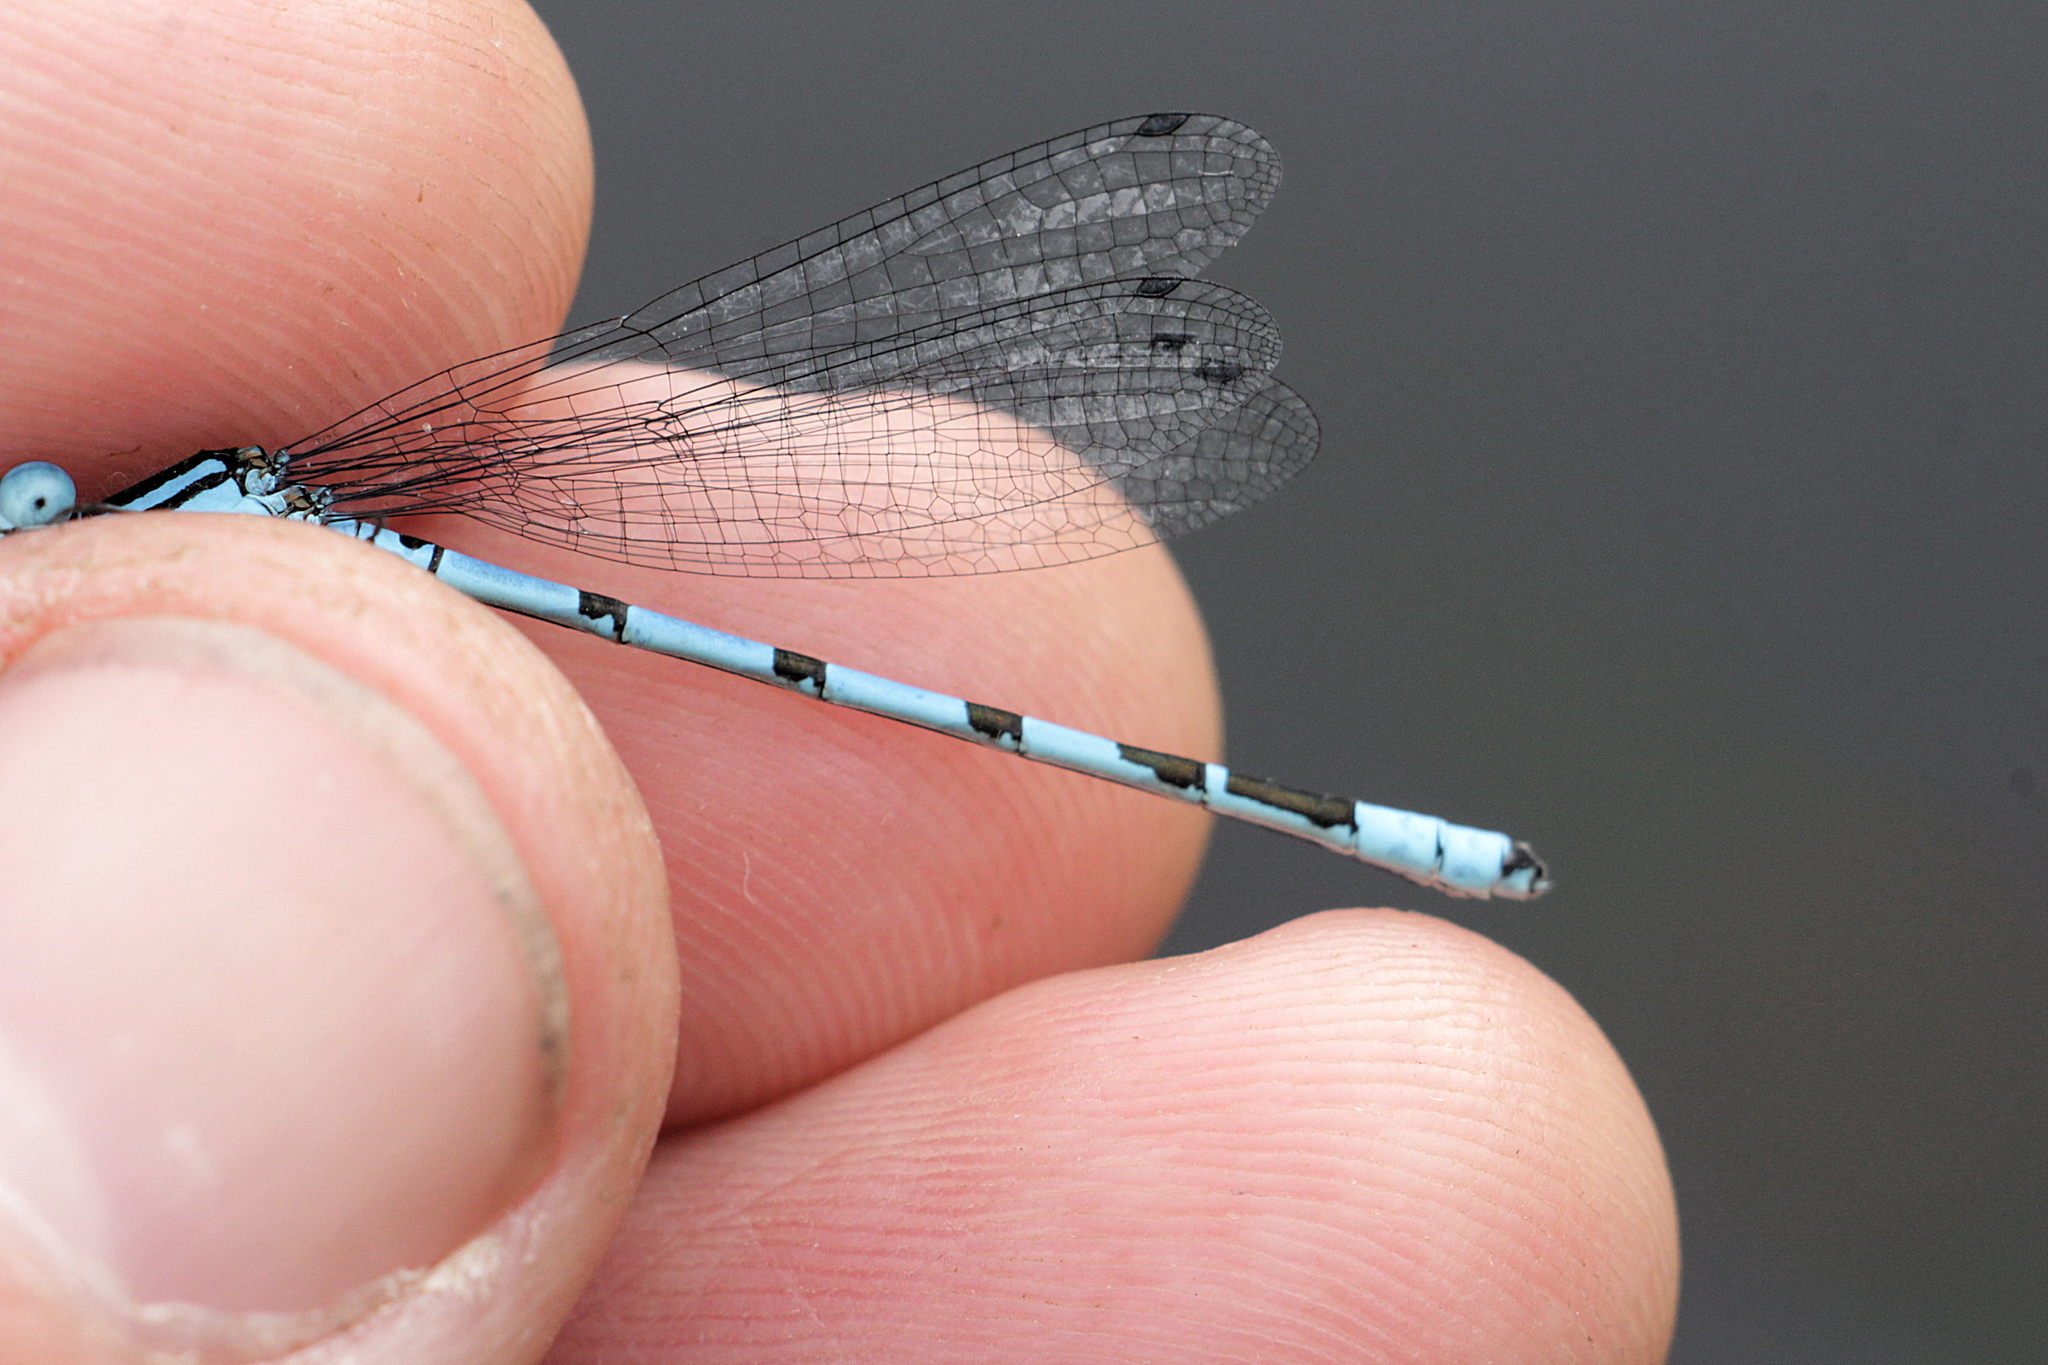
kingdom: Animalia
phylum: Arthropoda
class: Insecta
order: Odonata
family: Coenagrionidae
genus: Enallagma
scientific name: Enallagma cyathigerum
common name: Common blue damselfly
